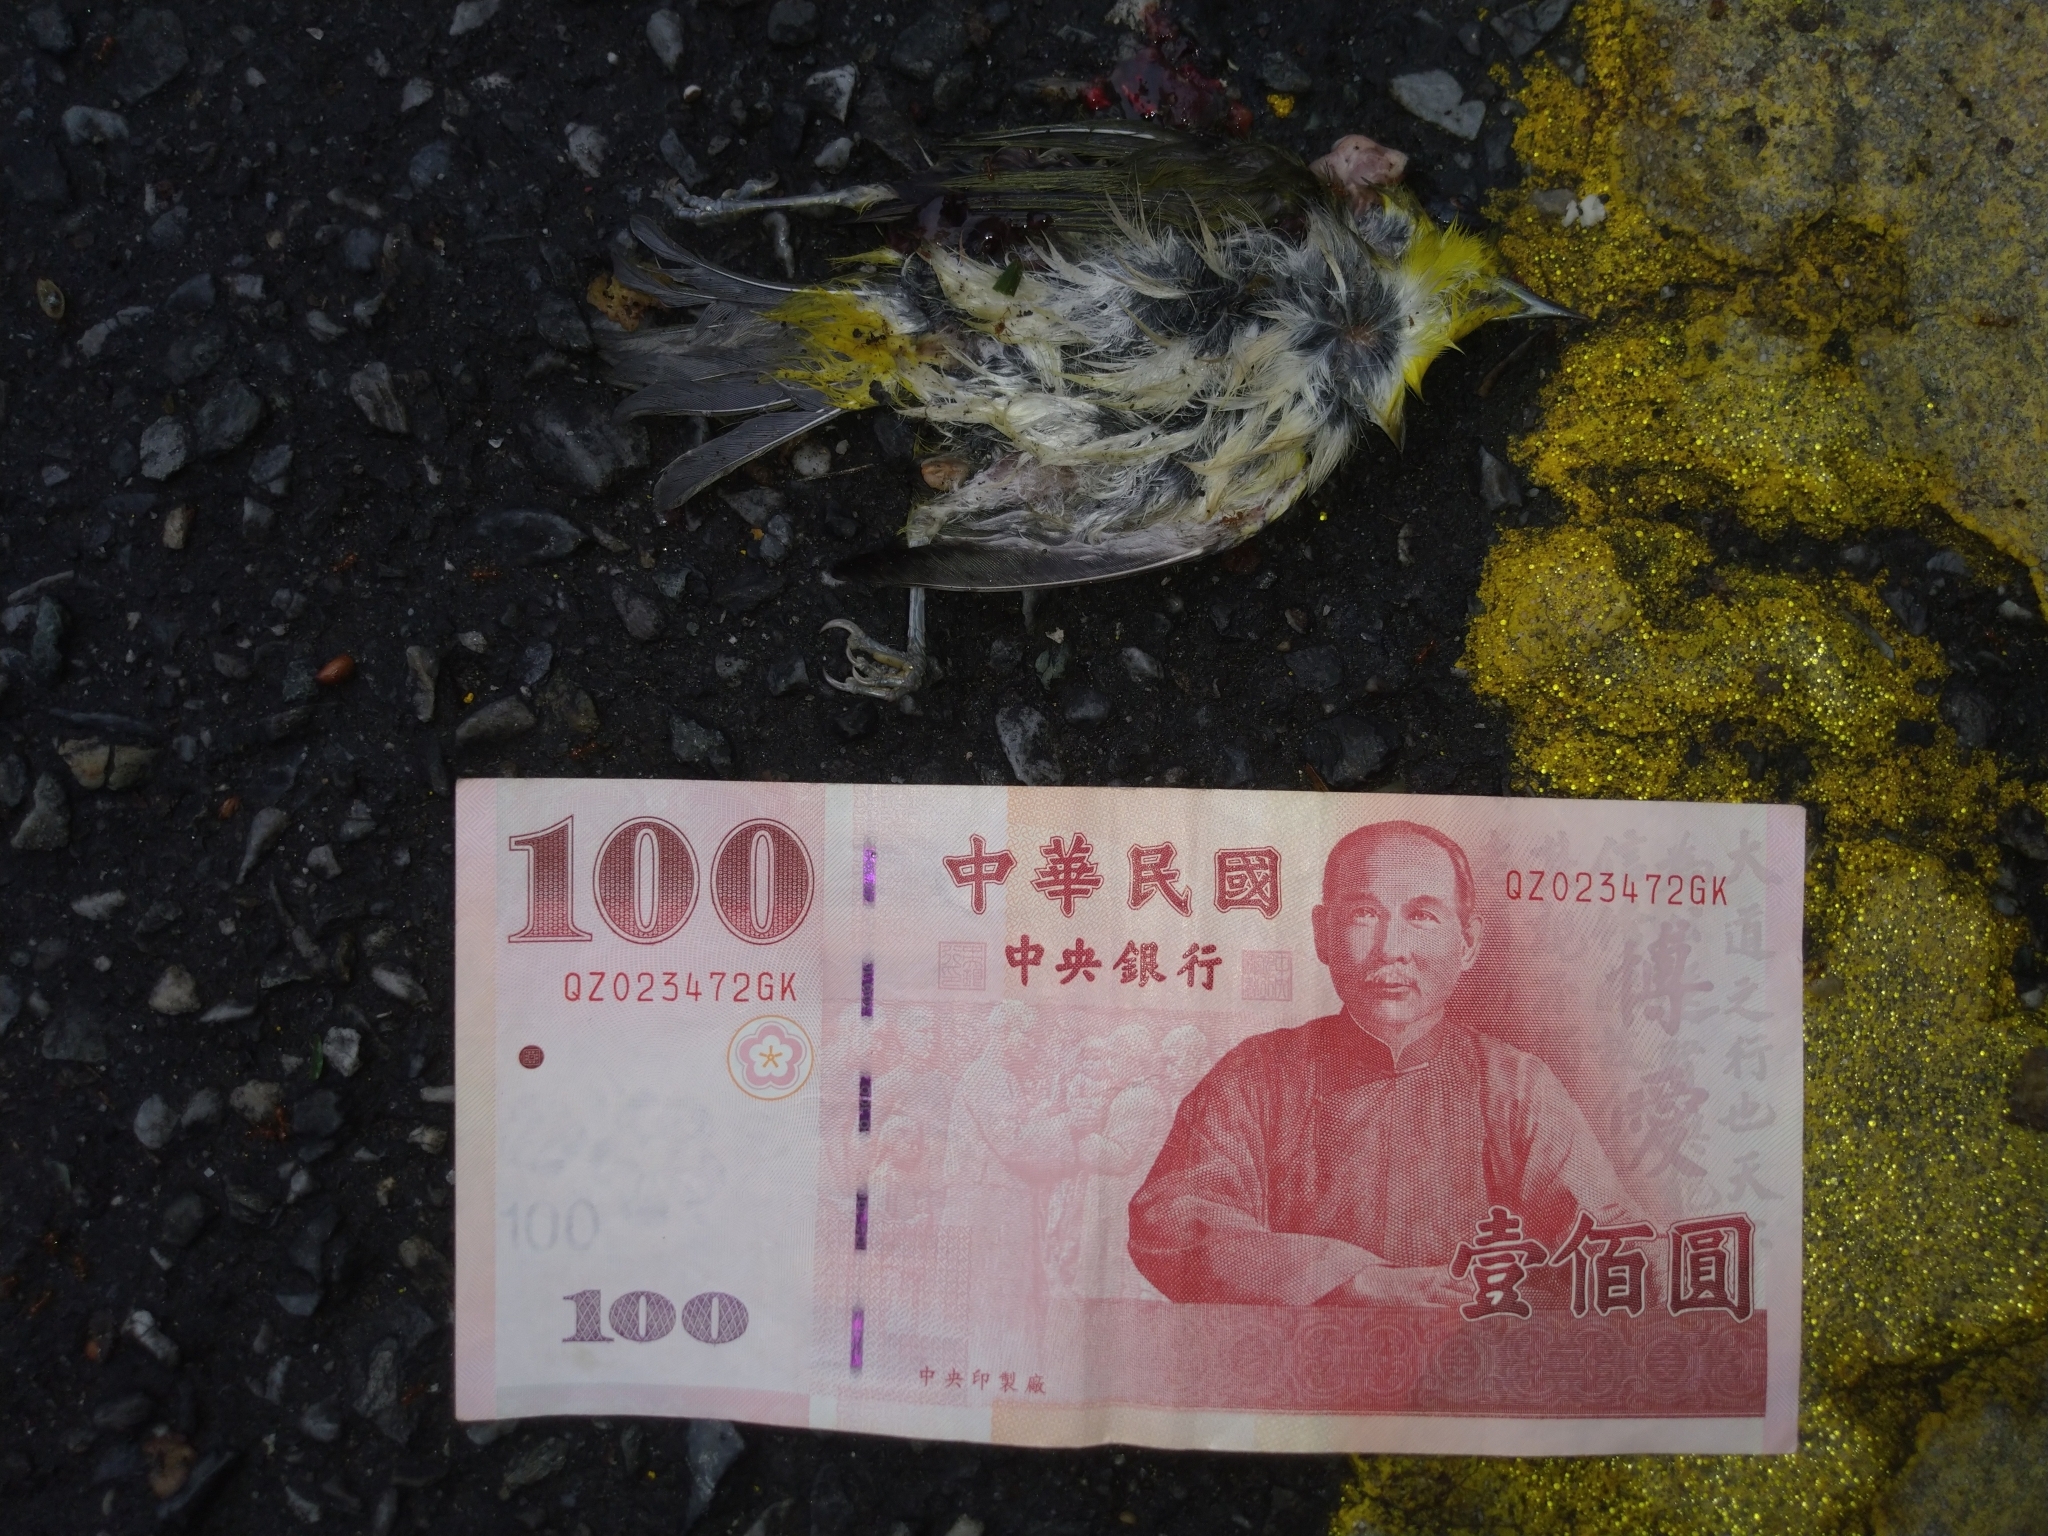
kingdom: Animalia
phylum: Chordata
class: Aves
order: Passeriformes
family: Zosteropidae
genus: Zosterops
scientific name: Zosterops simplex
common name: Swinhoe's white-eye
